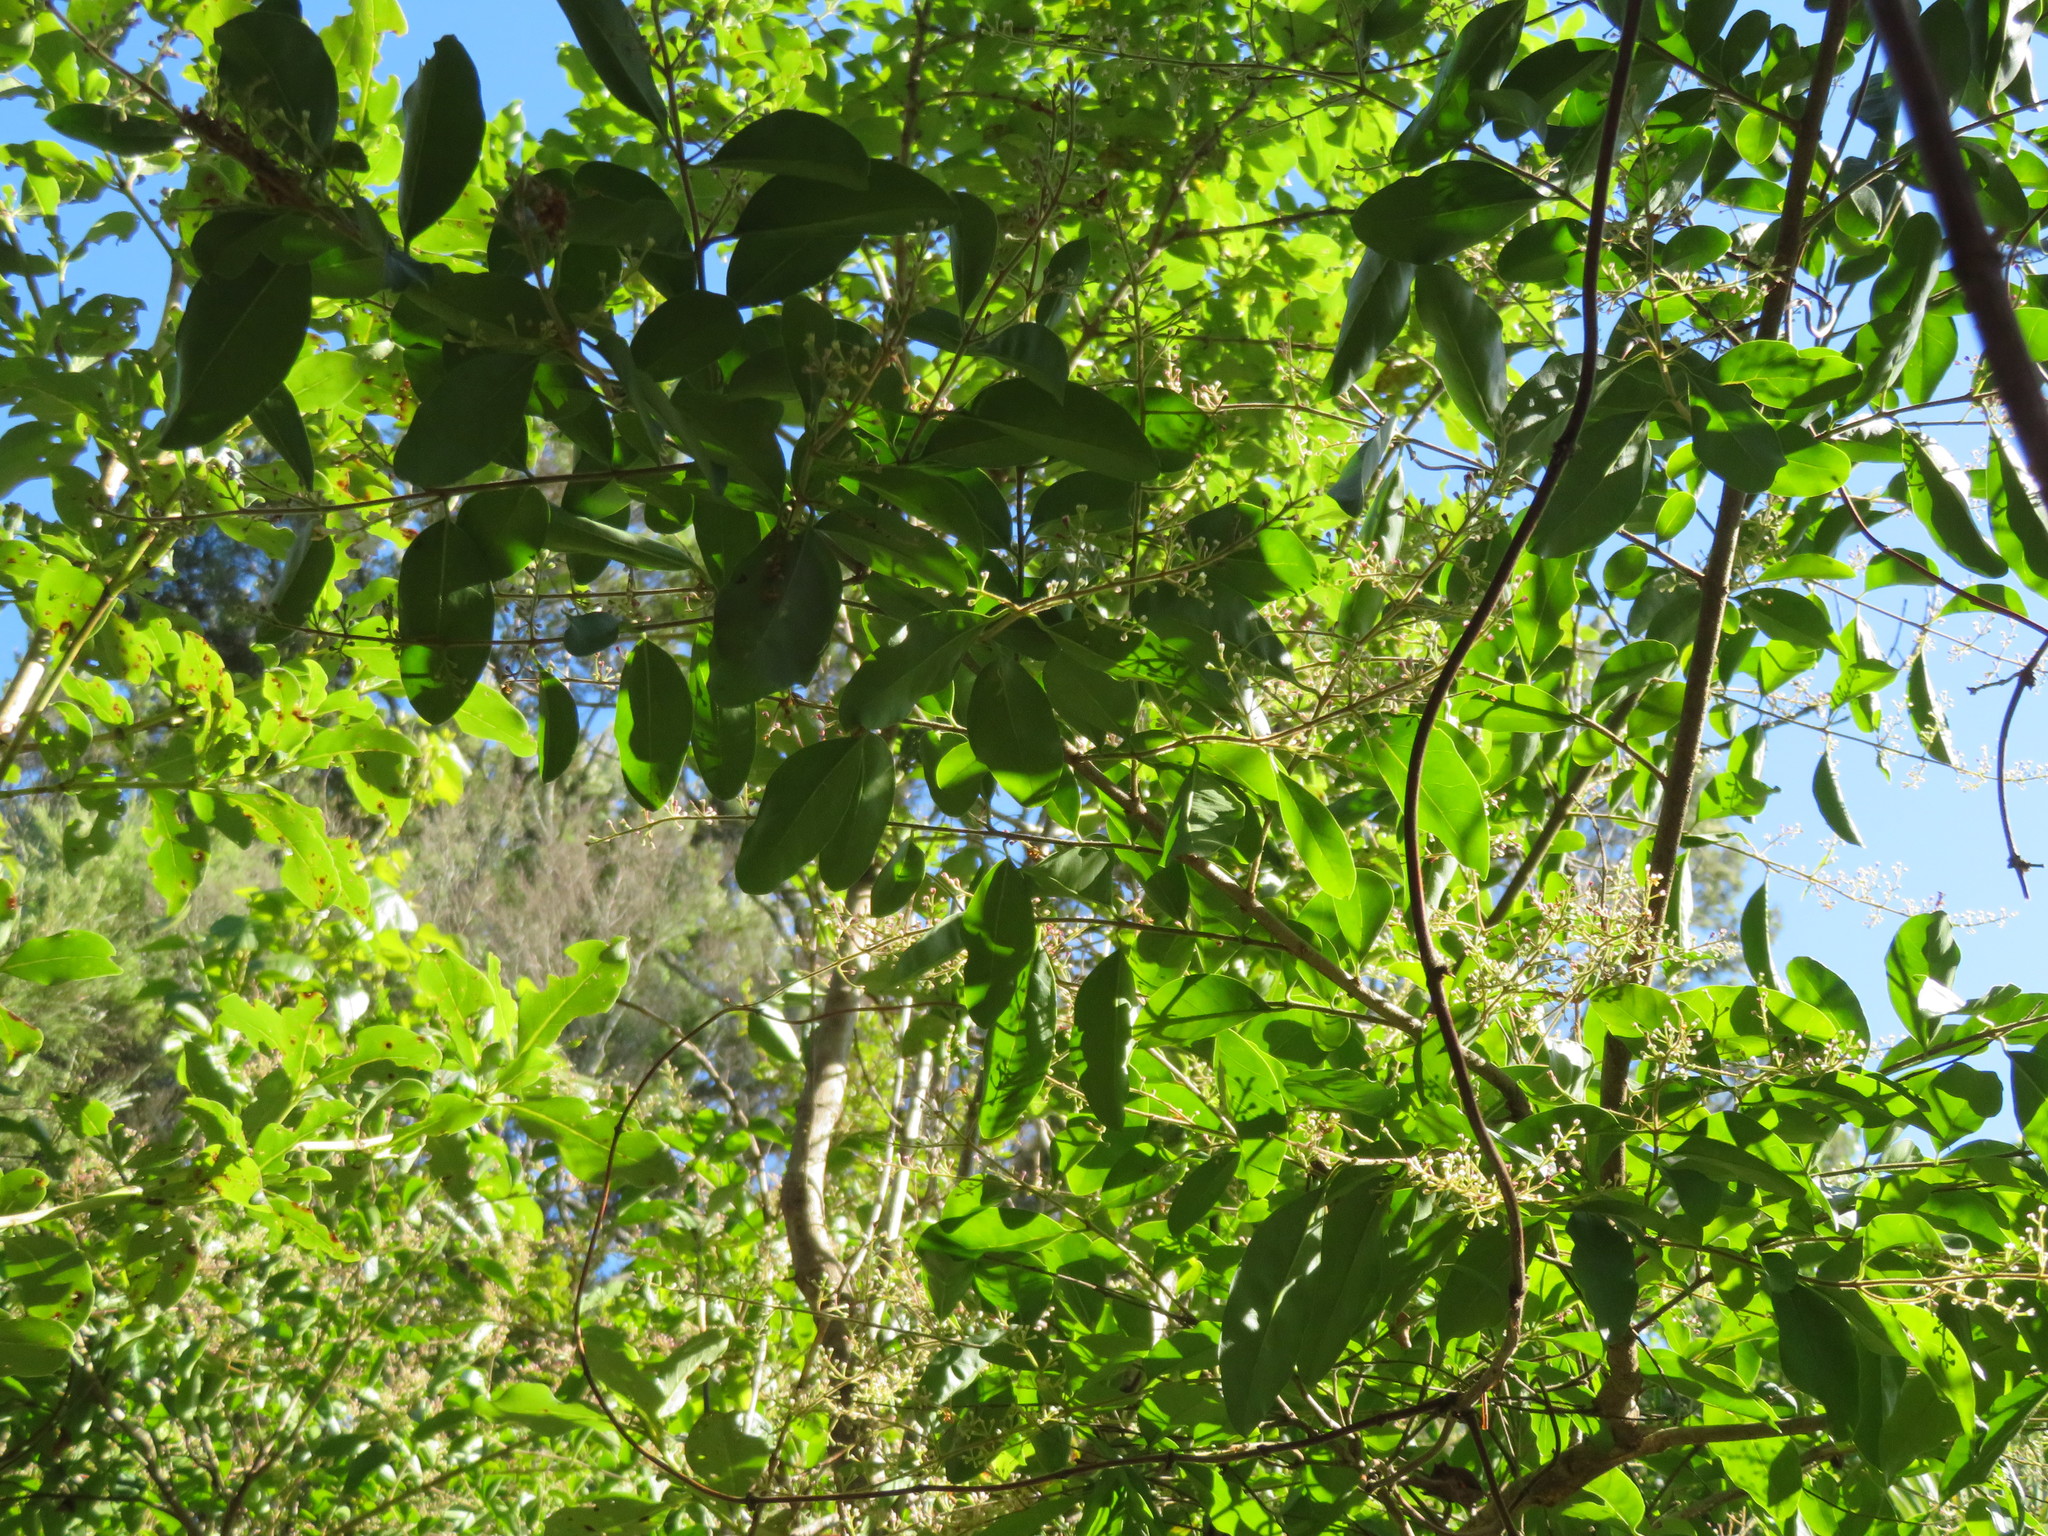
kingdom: Plantae
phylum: Tracheophyta
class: Magnoliopsida
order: Lamiales
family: Oleaceae
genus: Ligustrum
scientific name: Ligustrum sinense
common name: Chinese privet
